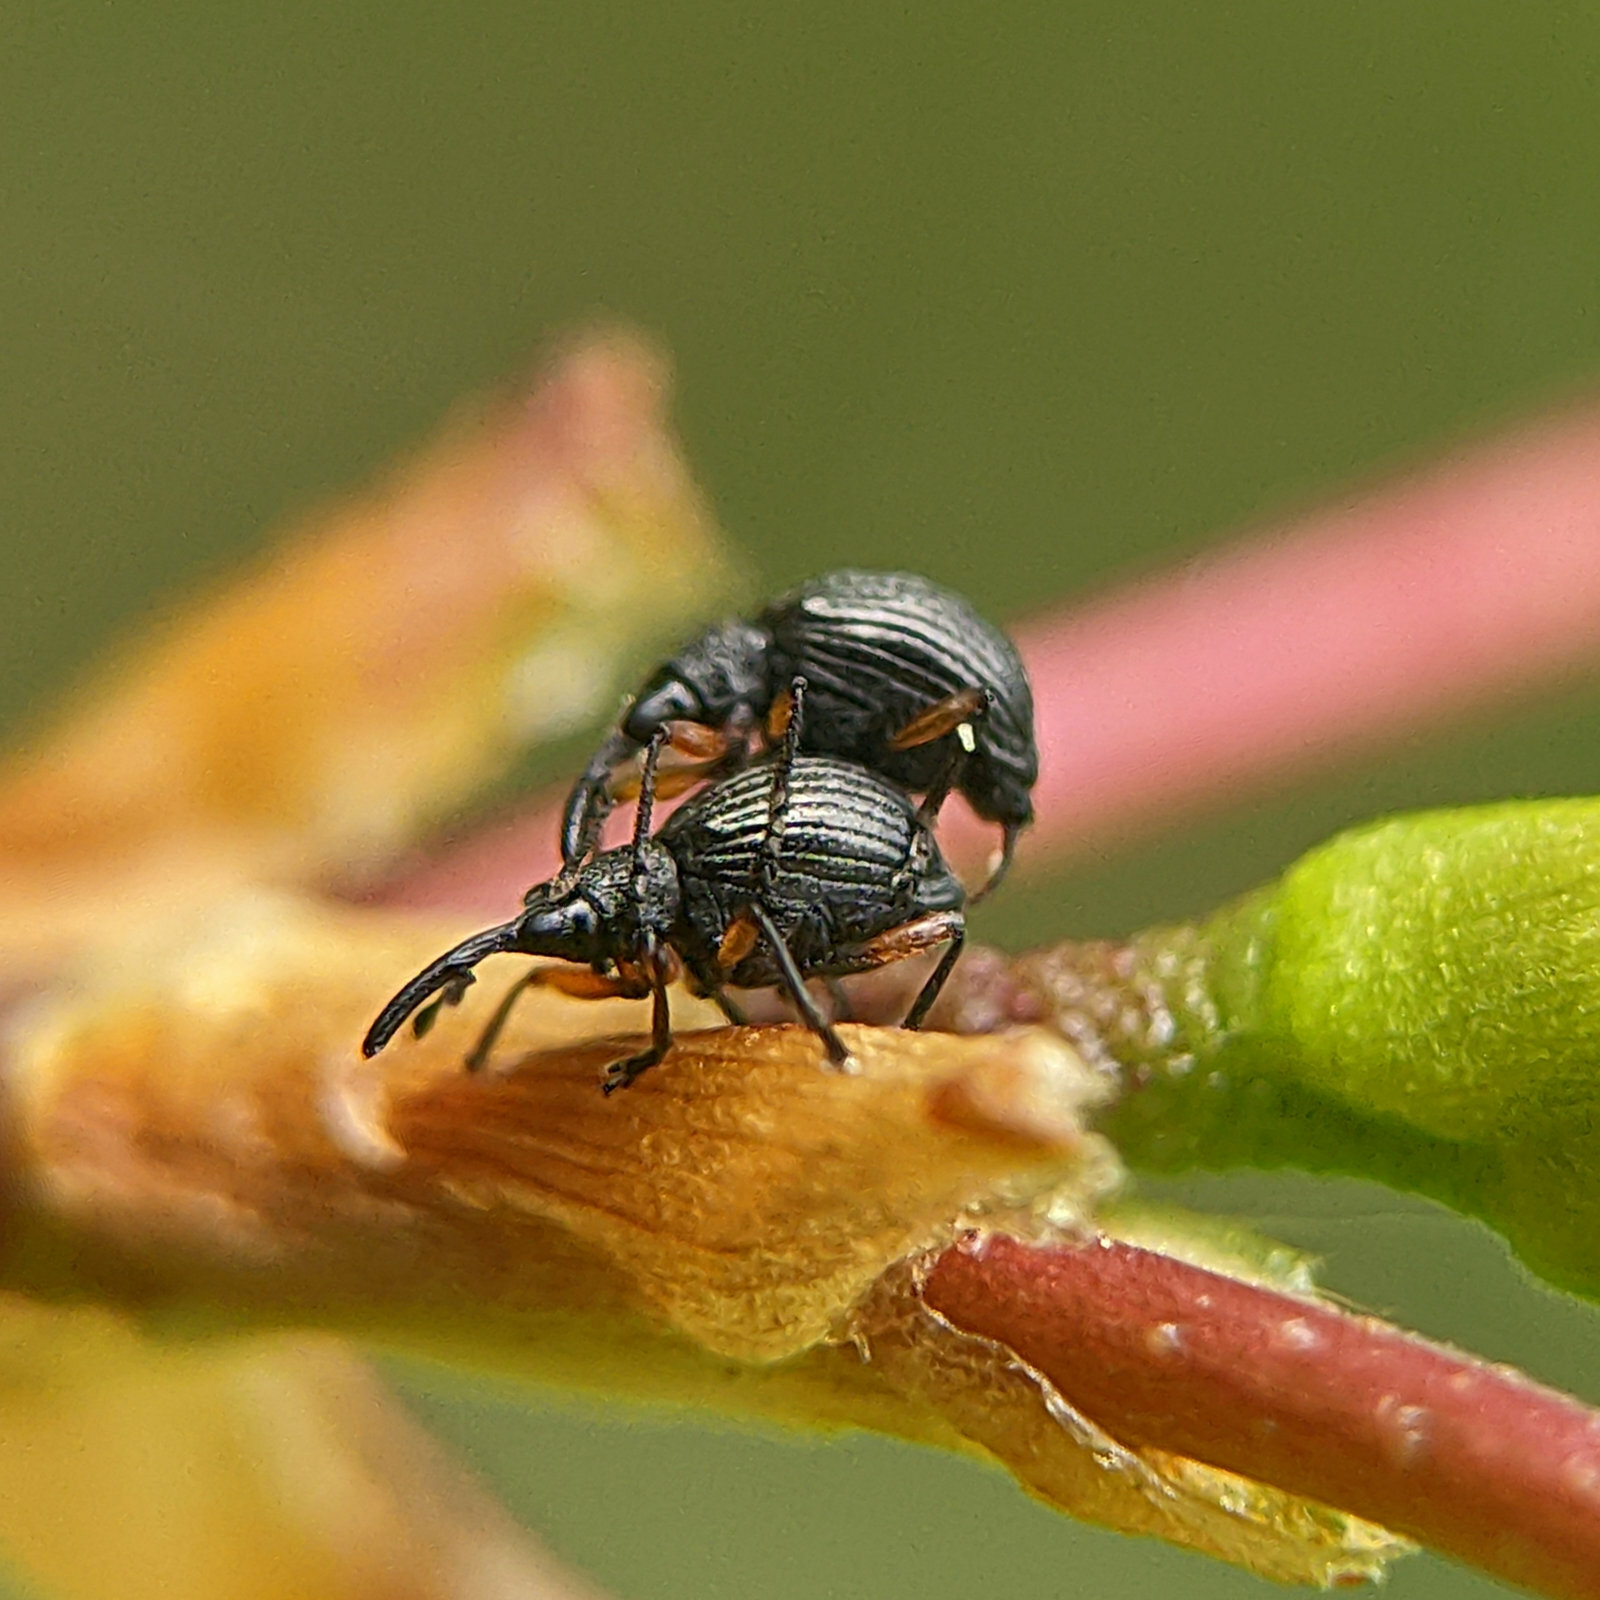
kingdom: Animalia
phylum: Arthropoda
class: Insecta
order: Coleoptera
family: Apionidae
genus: Protapion
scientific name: Protapion
